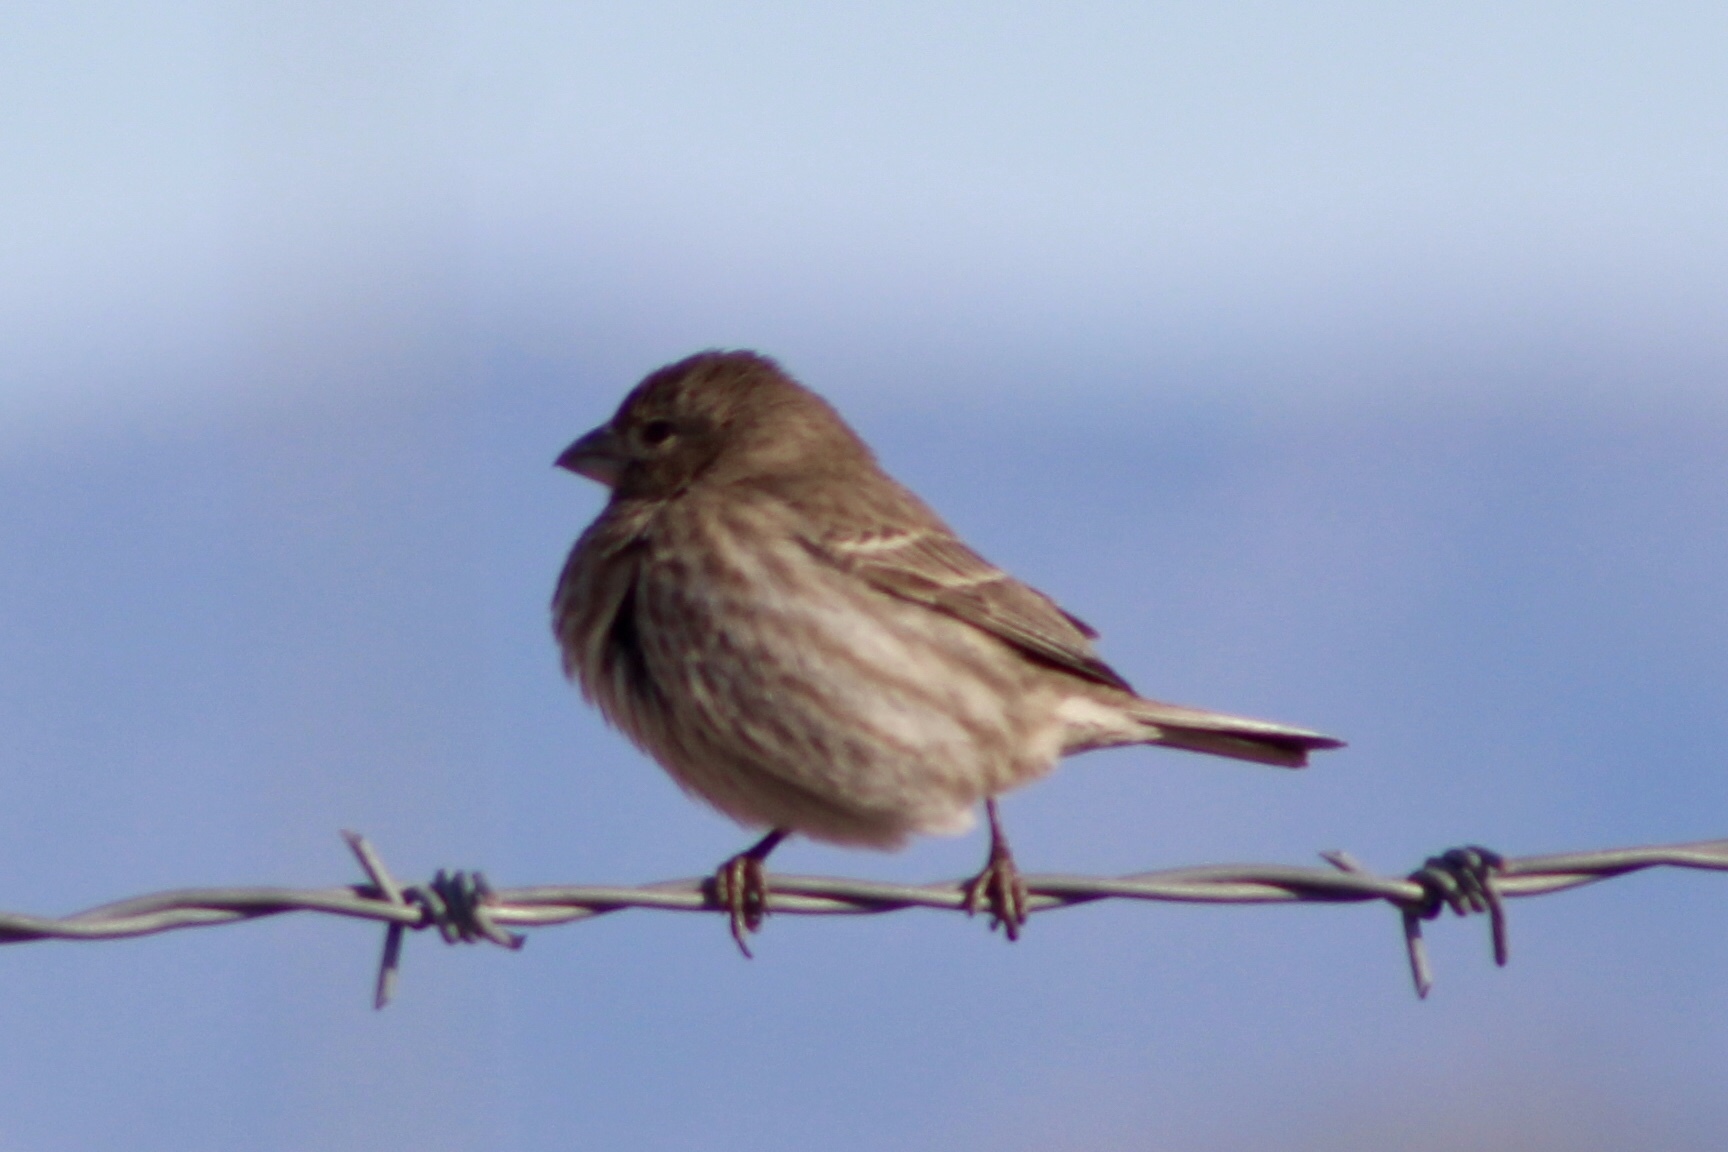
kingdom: Animalia
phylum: Chordata
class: Aves
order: Passeriformes
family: Fringillidae
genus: Haemorhous
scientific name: Haemorhous mexicanus
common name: House finch
